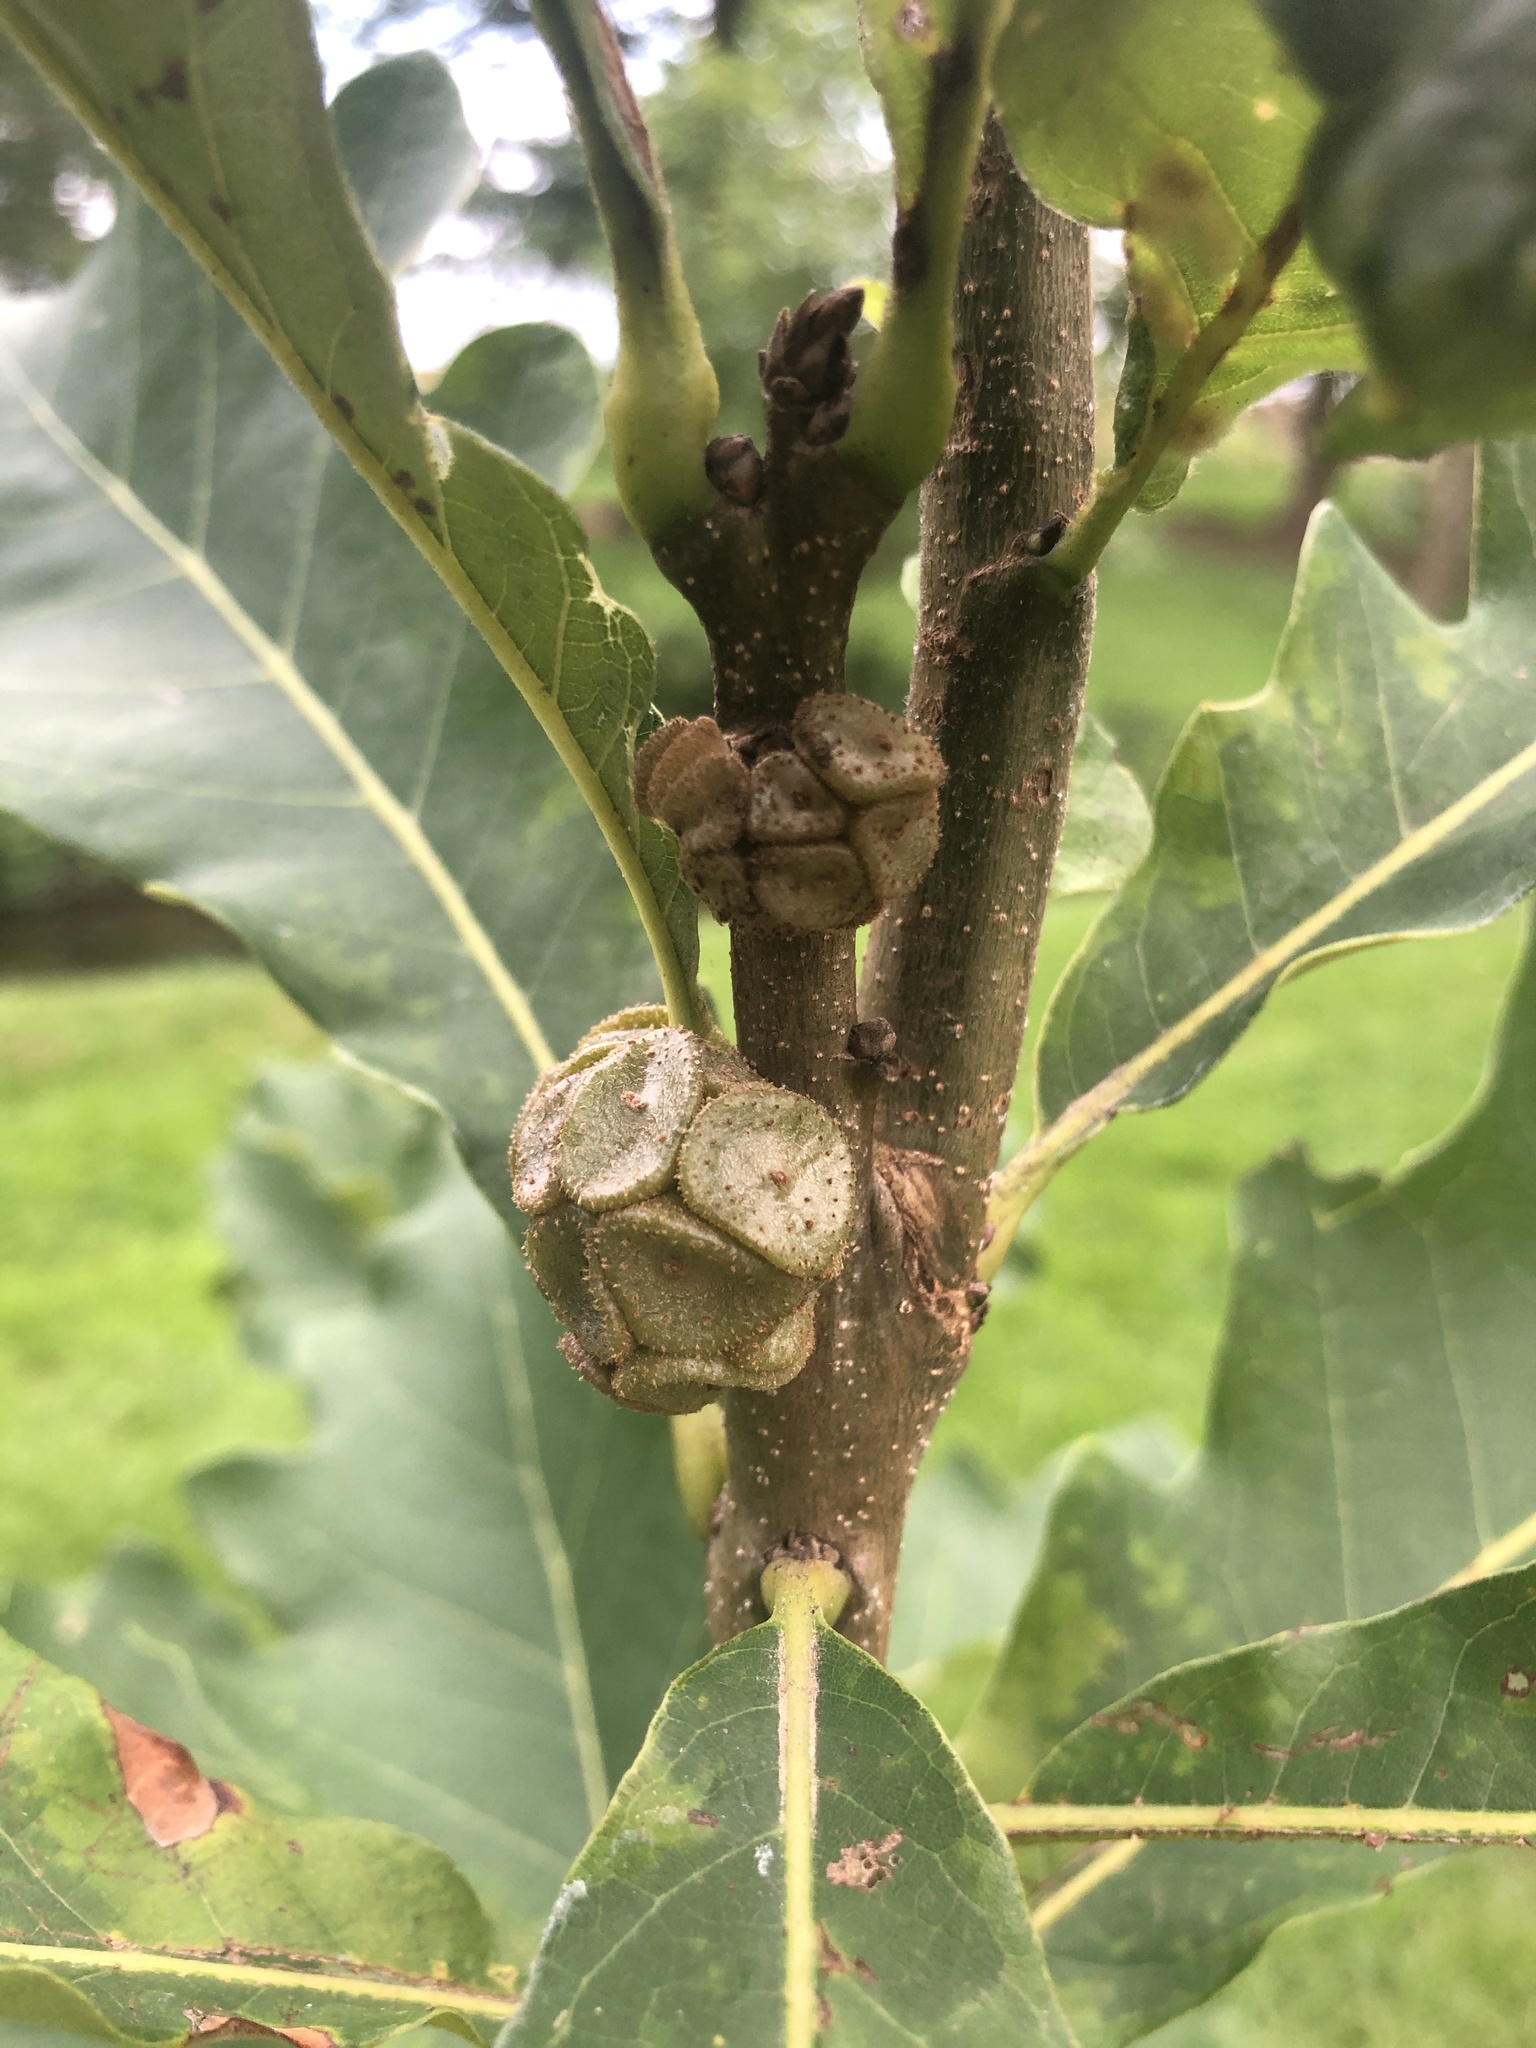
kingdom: Animalia
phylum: Arthropoda
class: Insecta
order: Hymenoptera
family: Cynipidae
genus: Andricus
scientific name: Andricus
